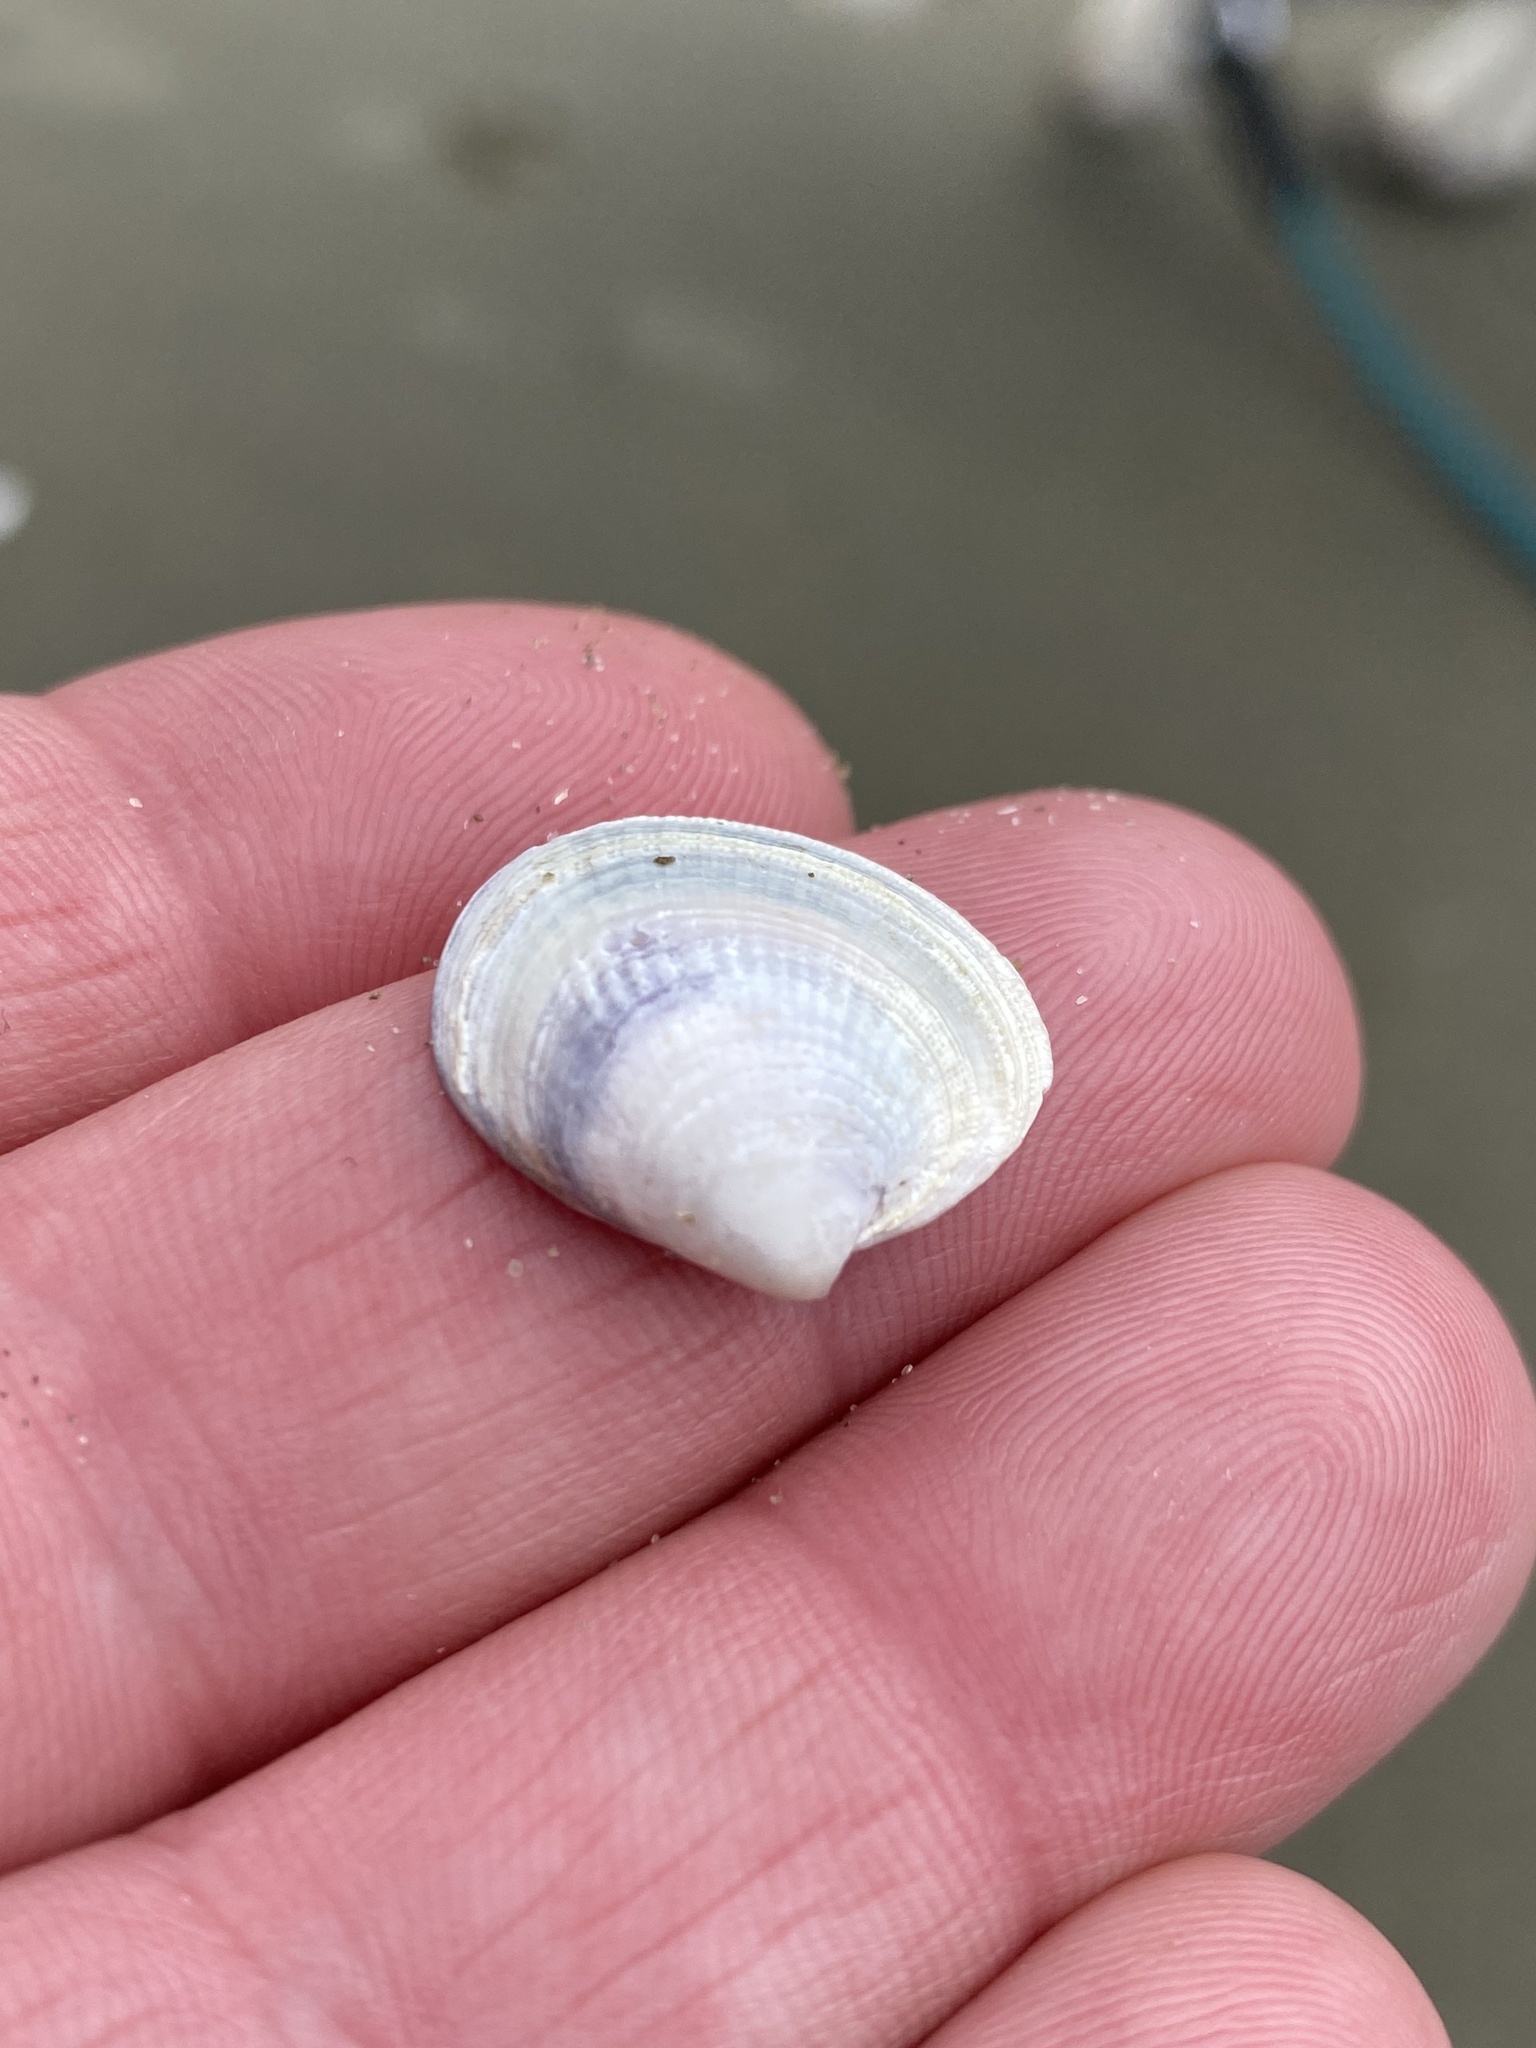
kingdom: Animalia
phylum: Mollusca
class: Bivalvia
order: Venerida
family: Veneridae
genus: Austrovenus
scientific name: Austrovenus stutchburyi
